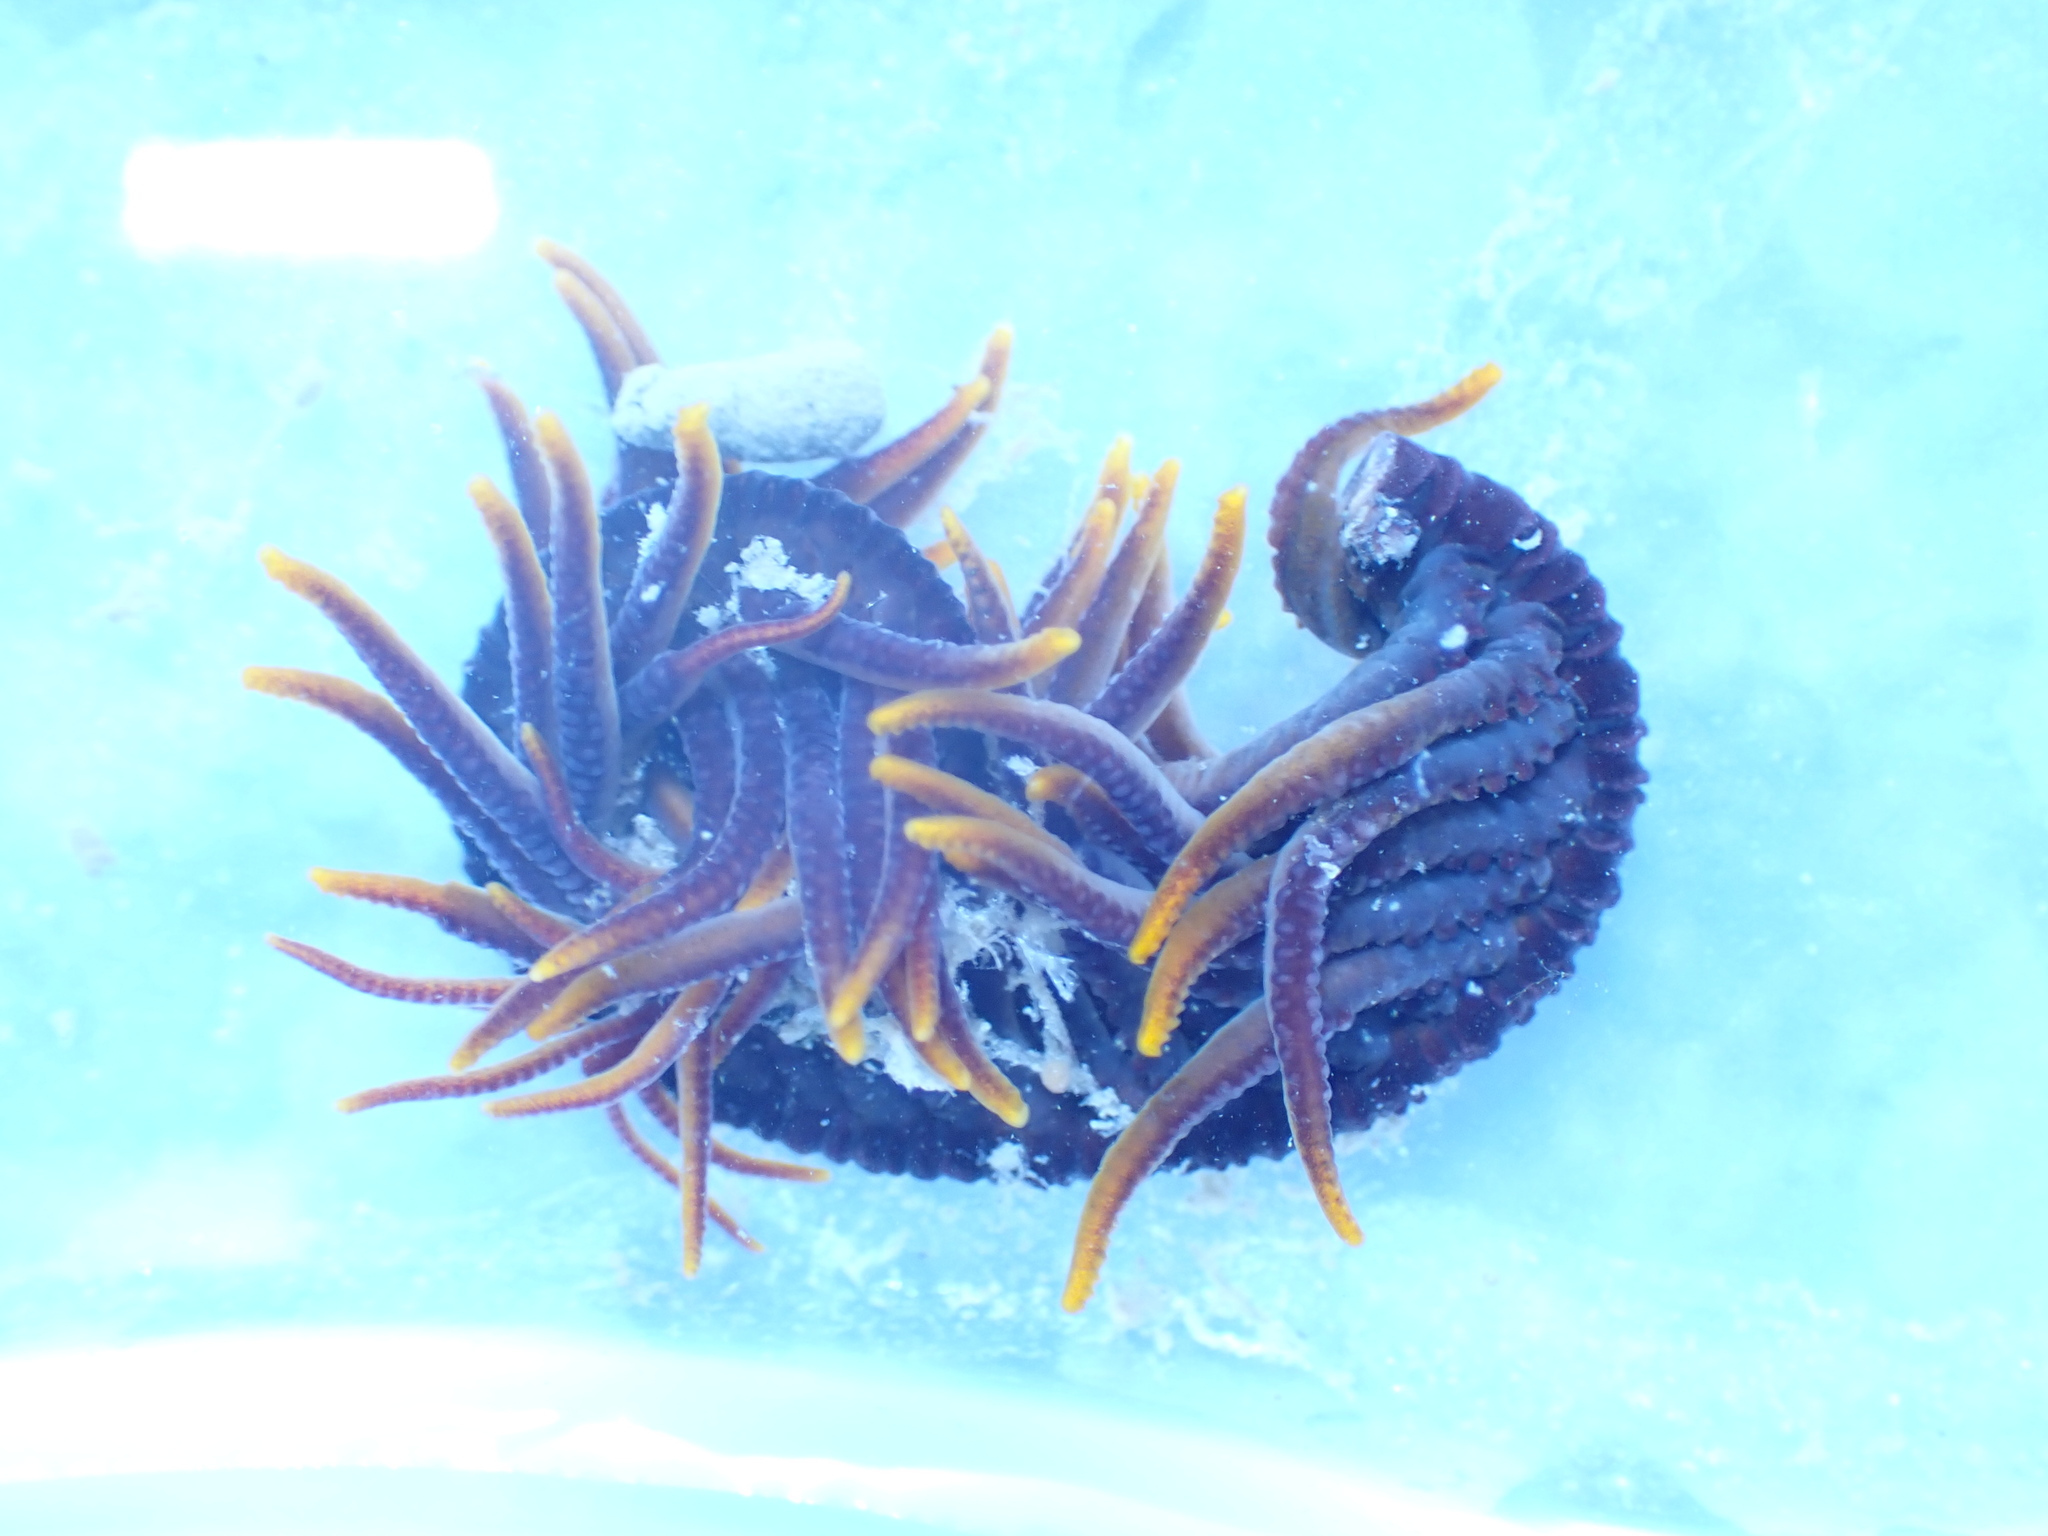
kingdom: Animalia
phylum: Echinodermata
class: Crinoidea
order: Comatulida
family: Comatulidae
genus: Cenolia
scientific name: Cenolia trichoptera
